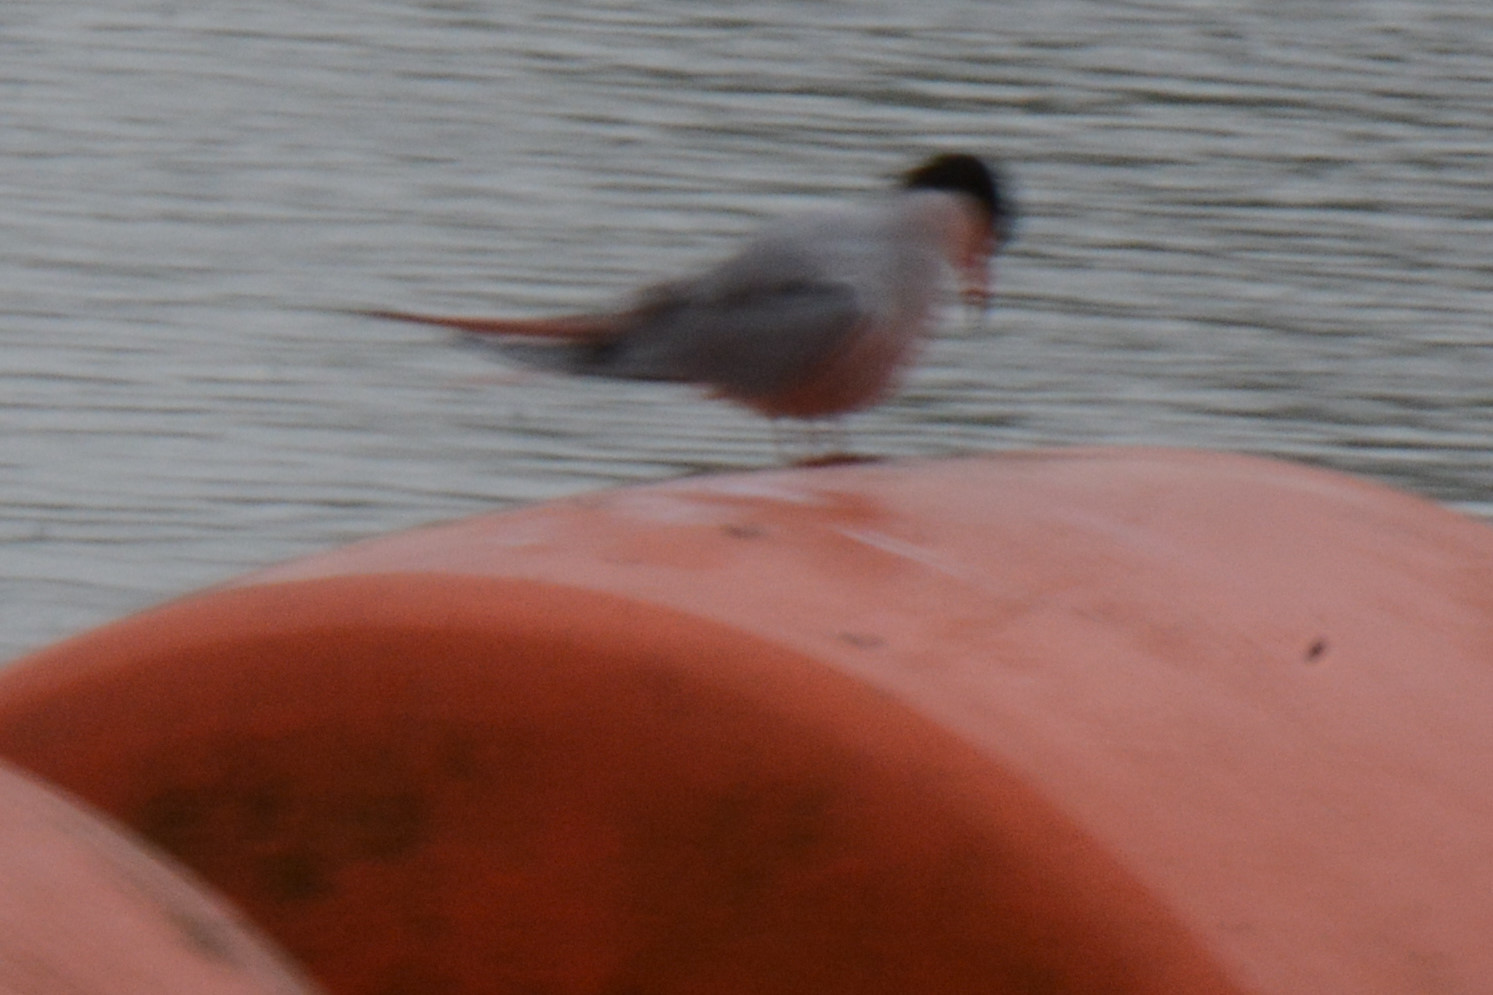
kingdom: Animalia
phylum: Chordata
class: Aves
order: Charadriiformes
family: Laridae
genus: Sterna
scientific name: Sterna hirundo
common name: Common tern
